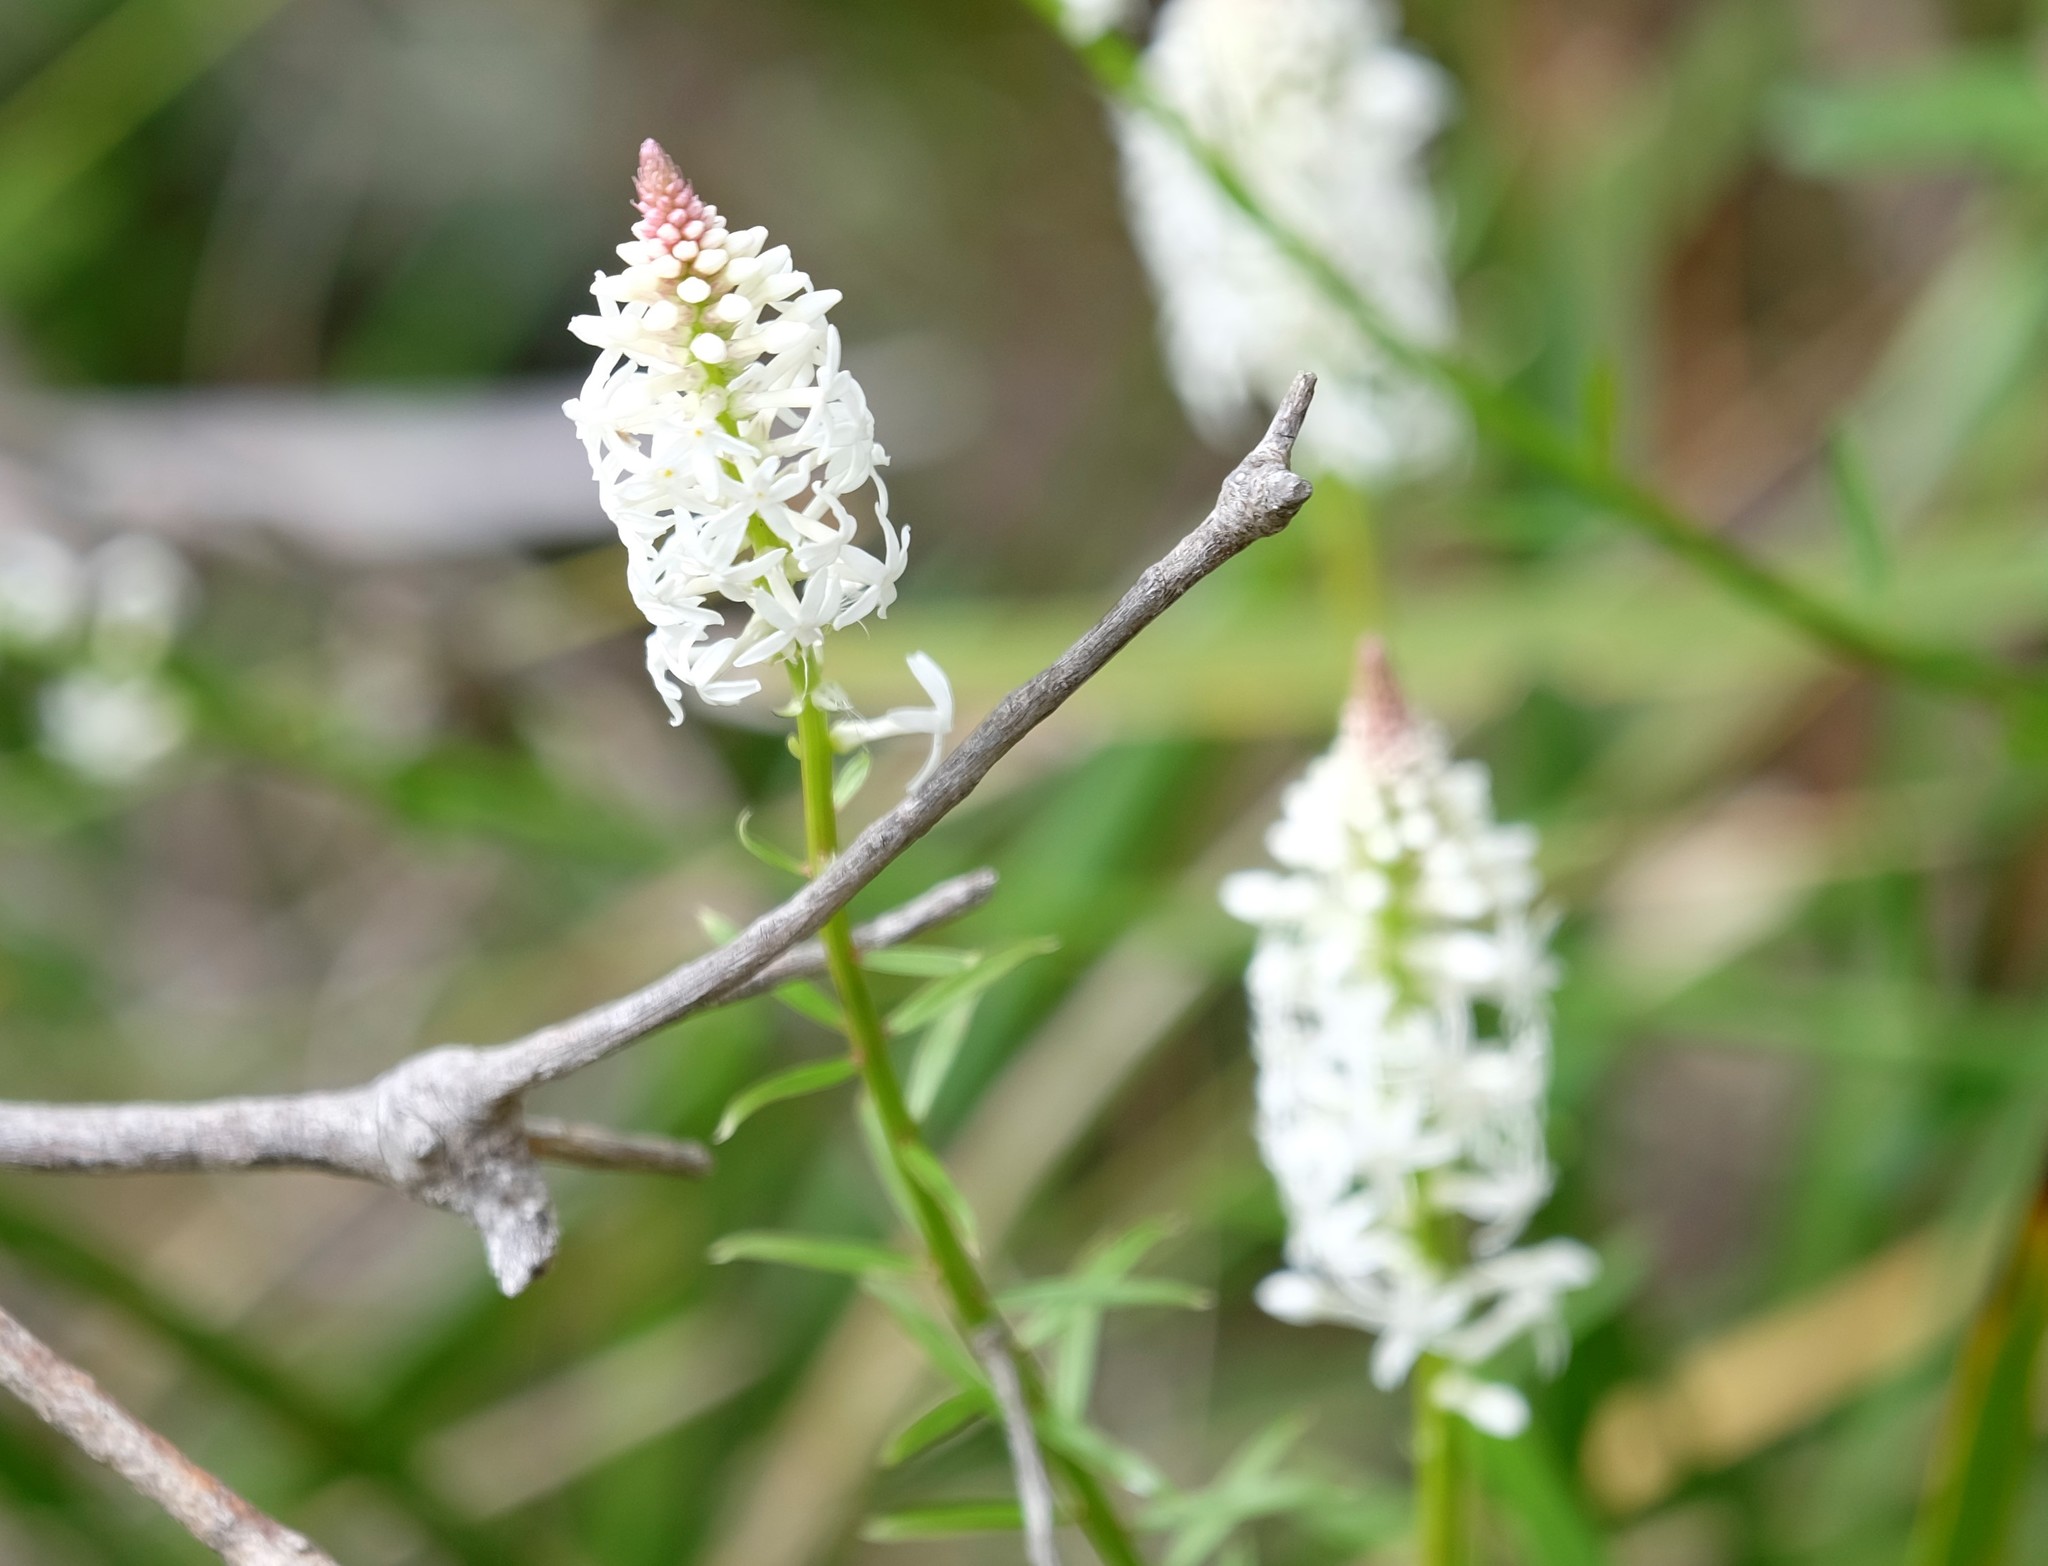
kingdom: Plantae
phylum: Tracheophyta
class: Magnoliopsida
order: Celastrales
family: Celastraceae
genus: Stackhousia
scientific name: Stackhousia monogyna
